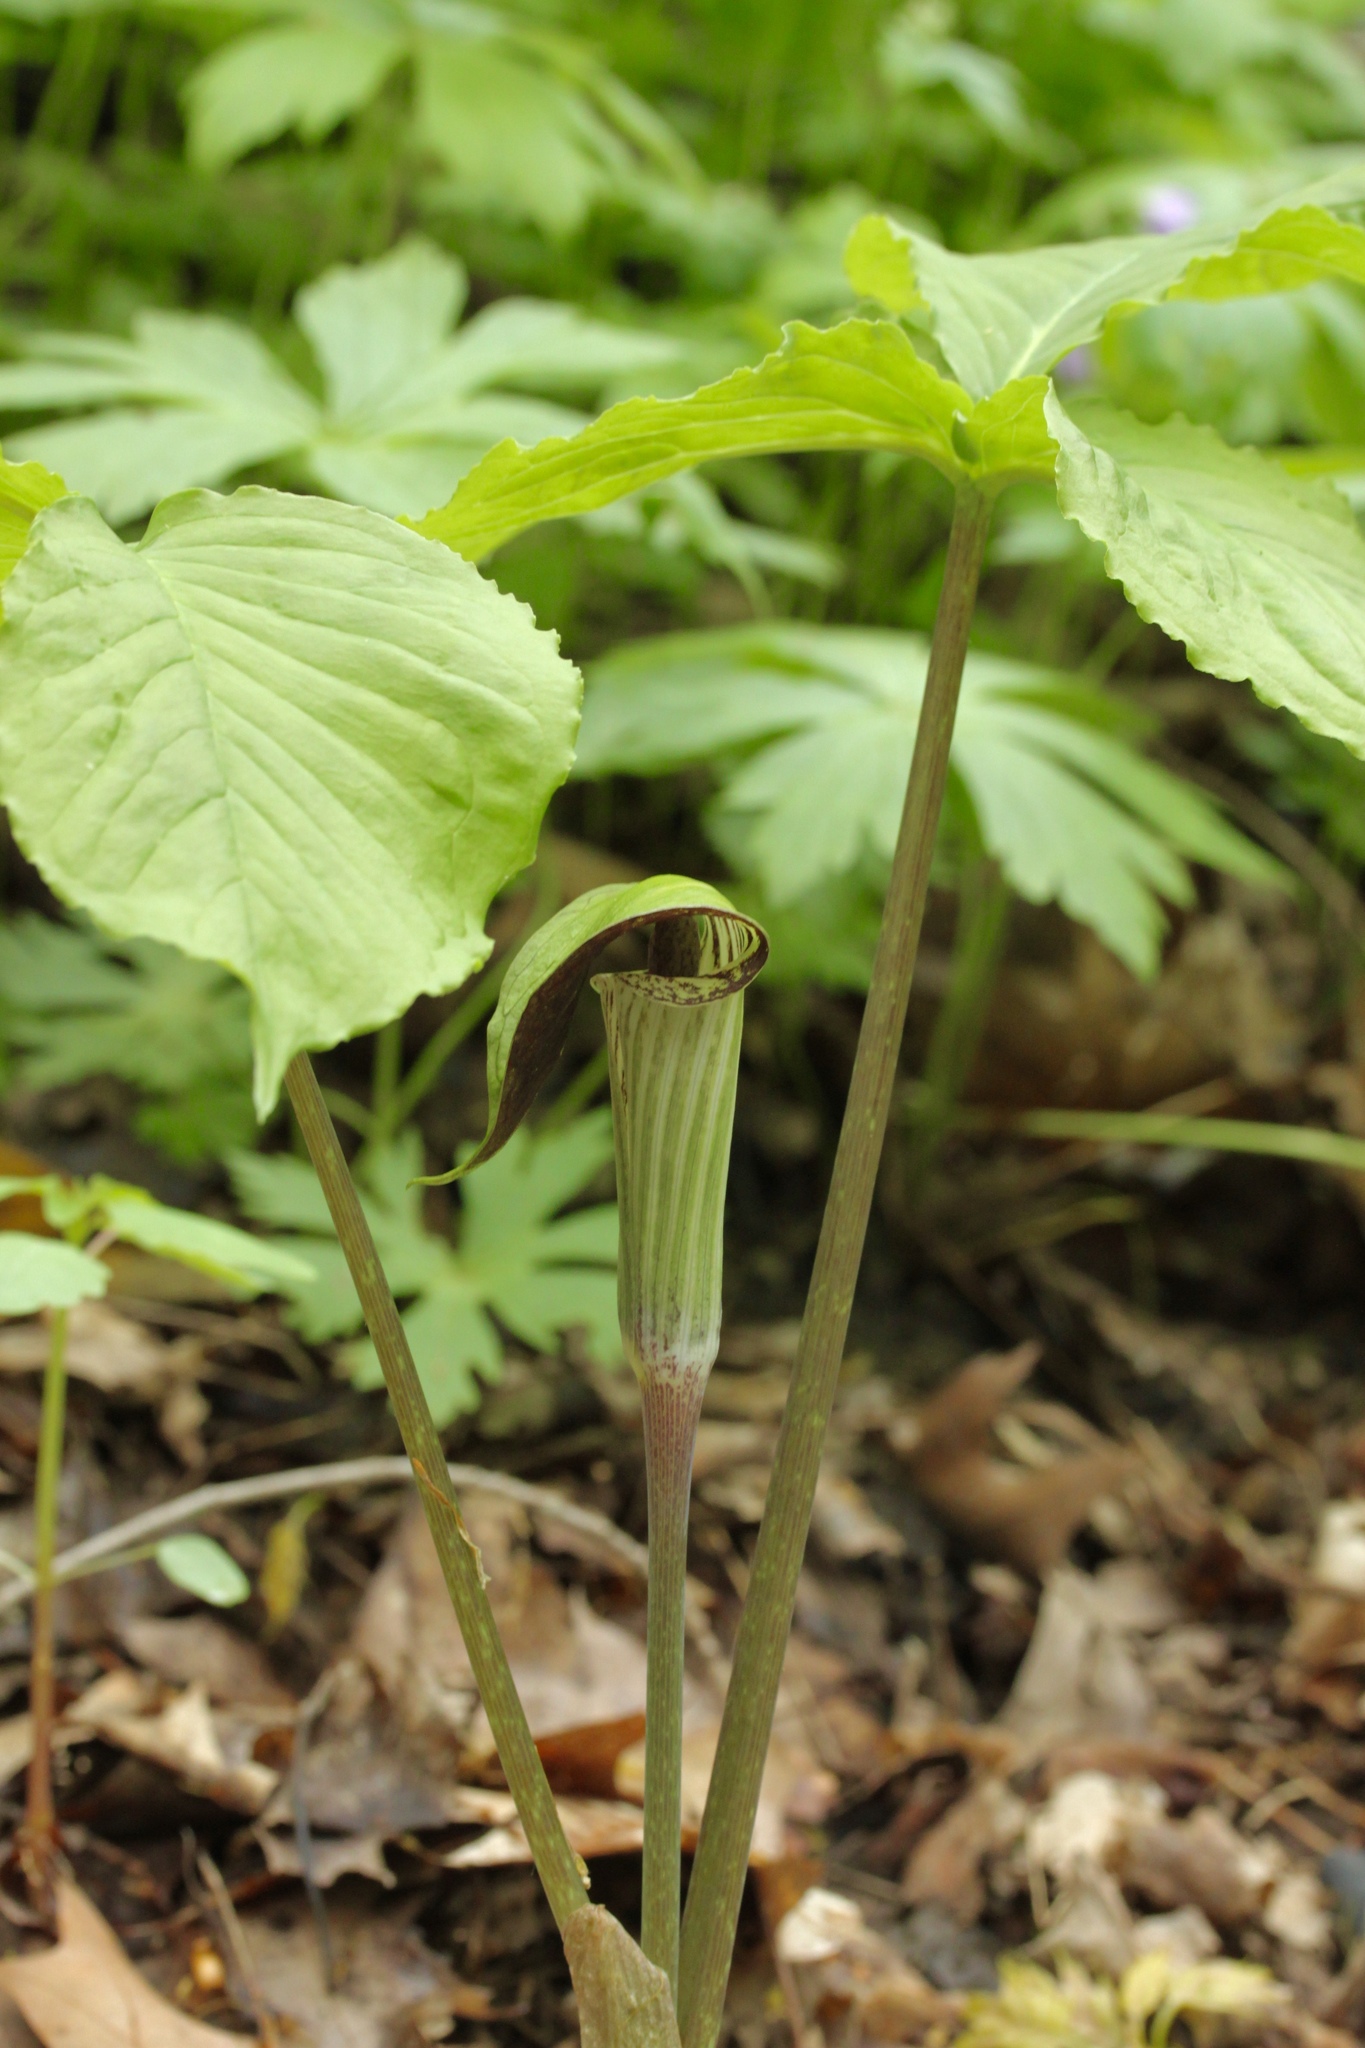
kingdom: Plantae
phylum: Tracheophyta
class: Liliopsida
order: Alismatales
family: Araceae
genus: Arisaema
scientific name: Arisaema triphyllum
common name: Jack-in-the-pulpit
